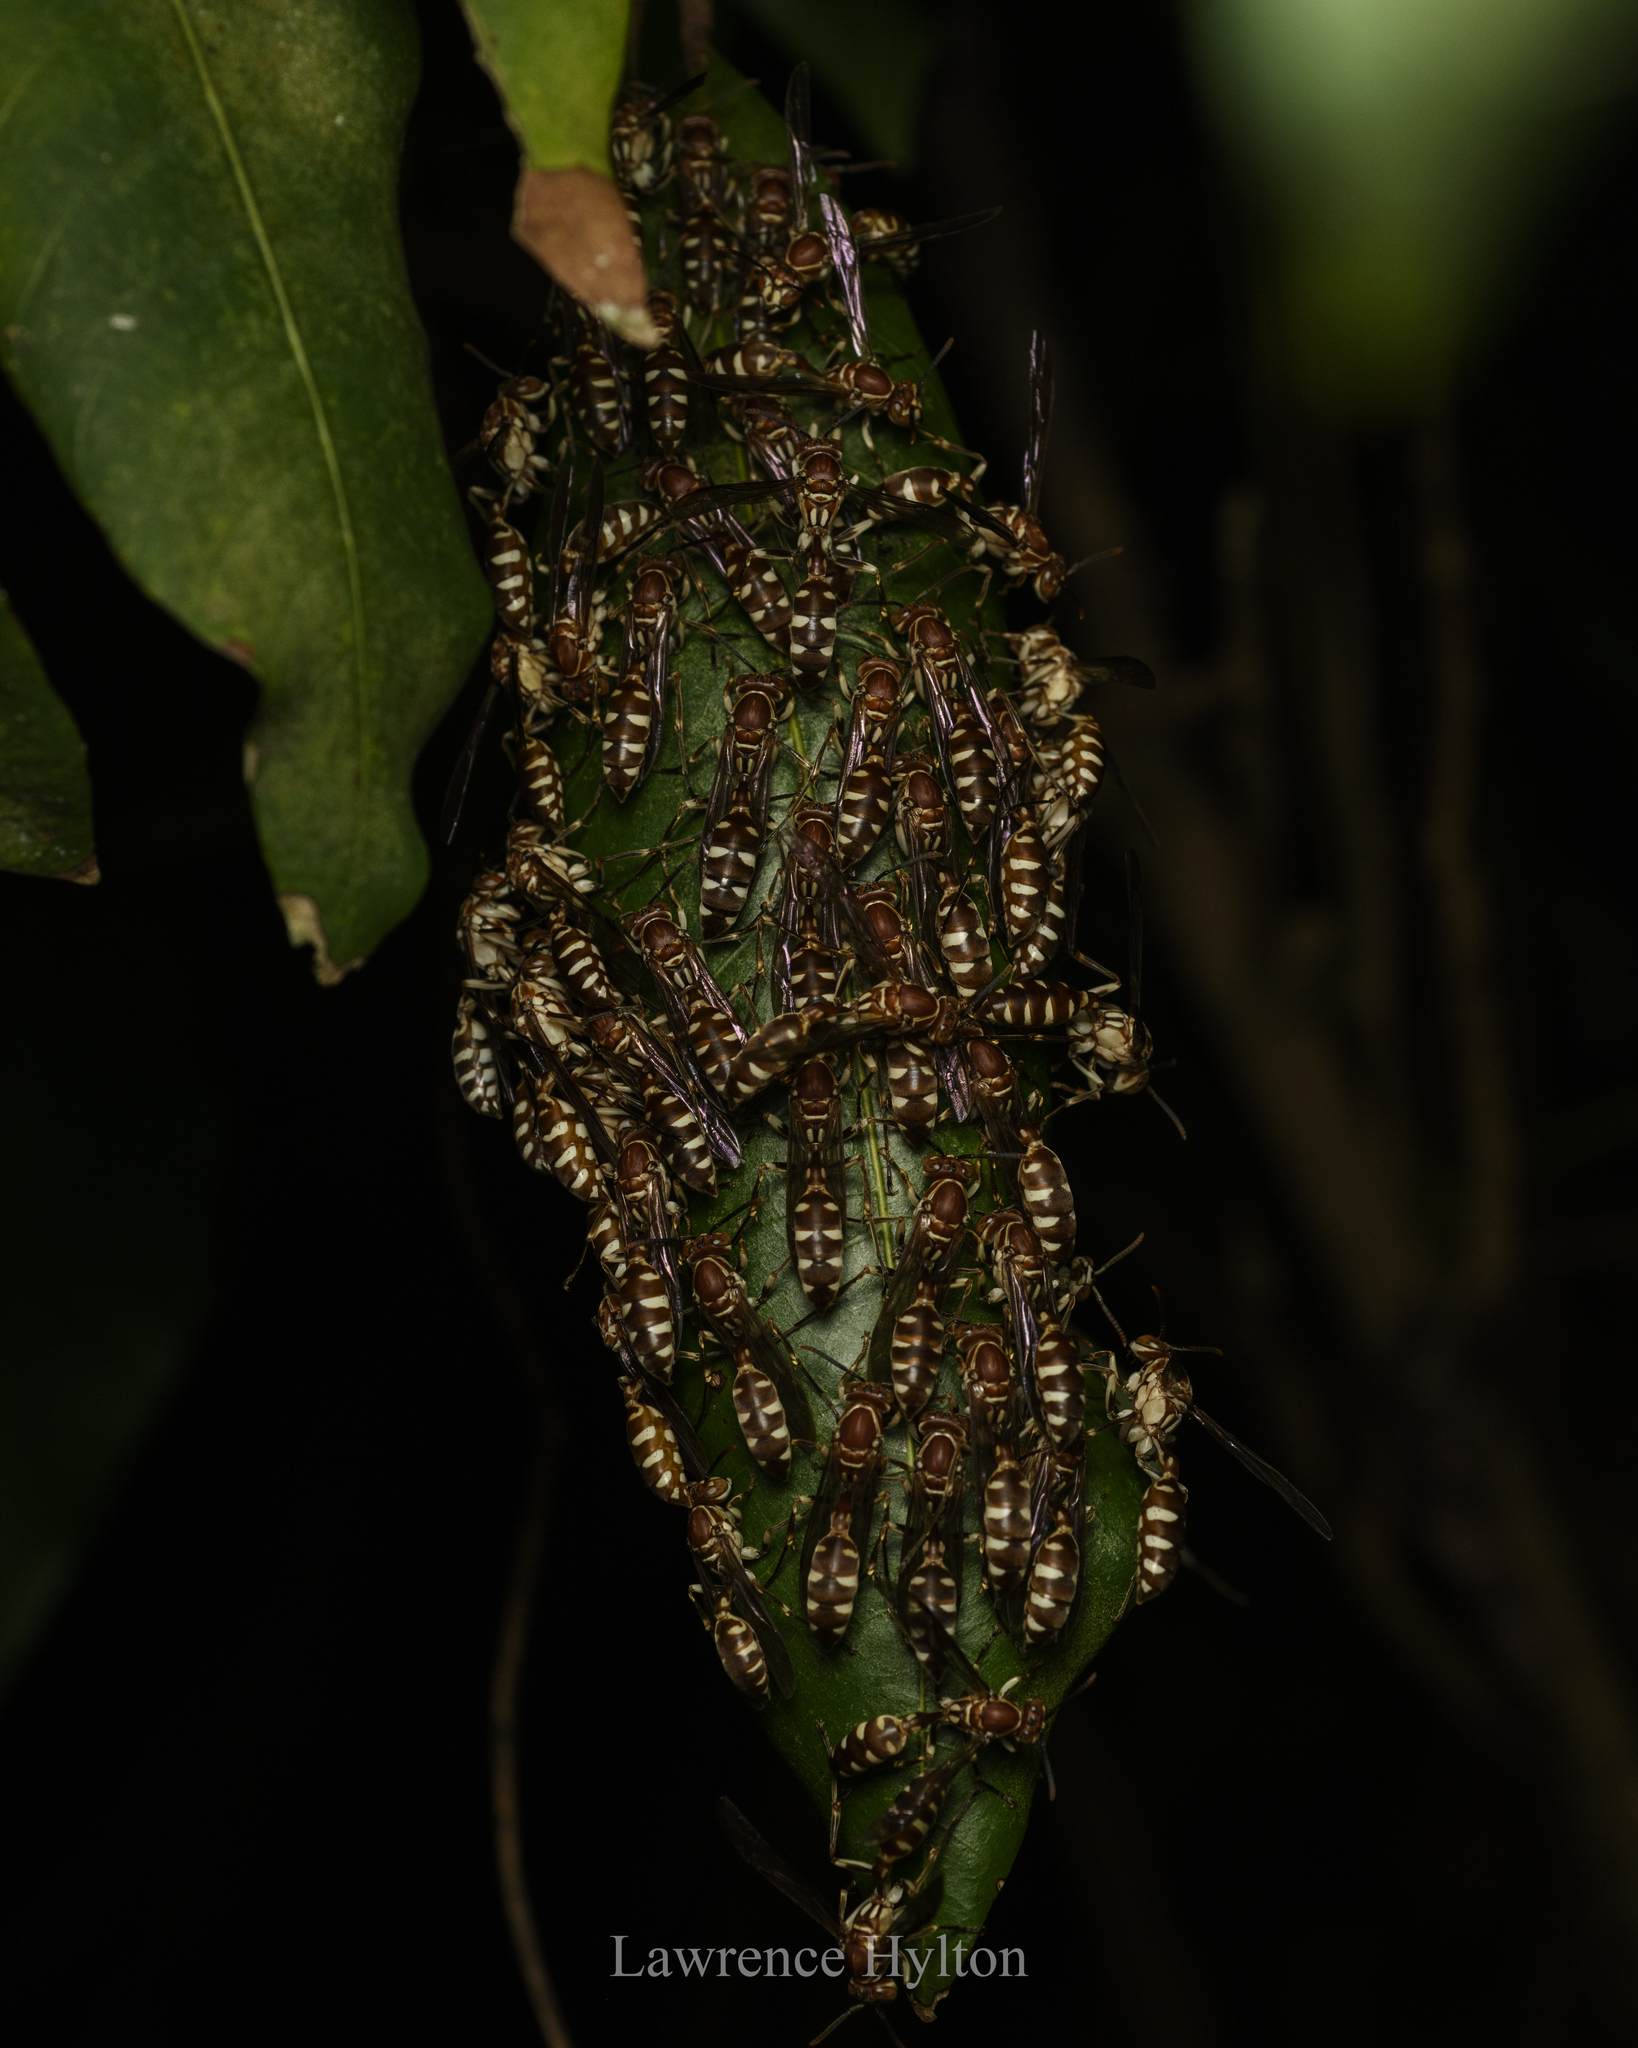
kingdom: Animalia
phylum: Arthropoda
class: Insecta
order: Hymenoptera
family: Vespidae
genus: Parapolybia
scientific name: Parapolybia nodosa
